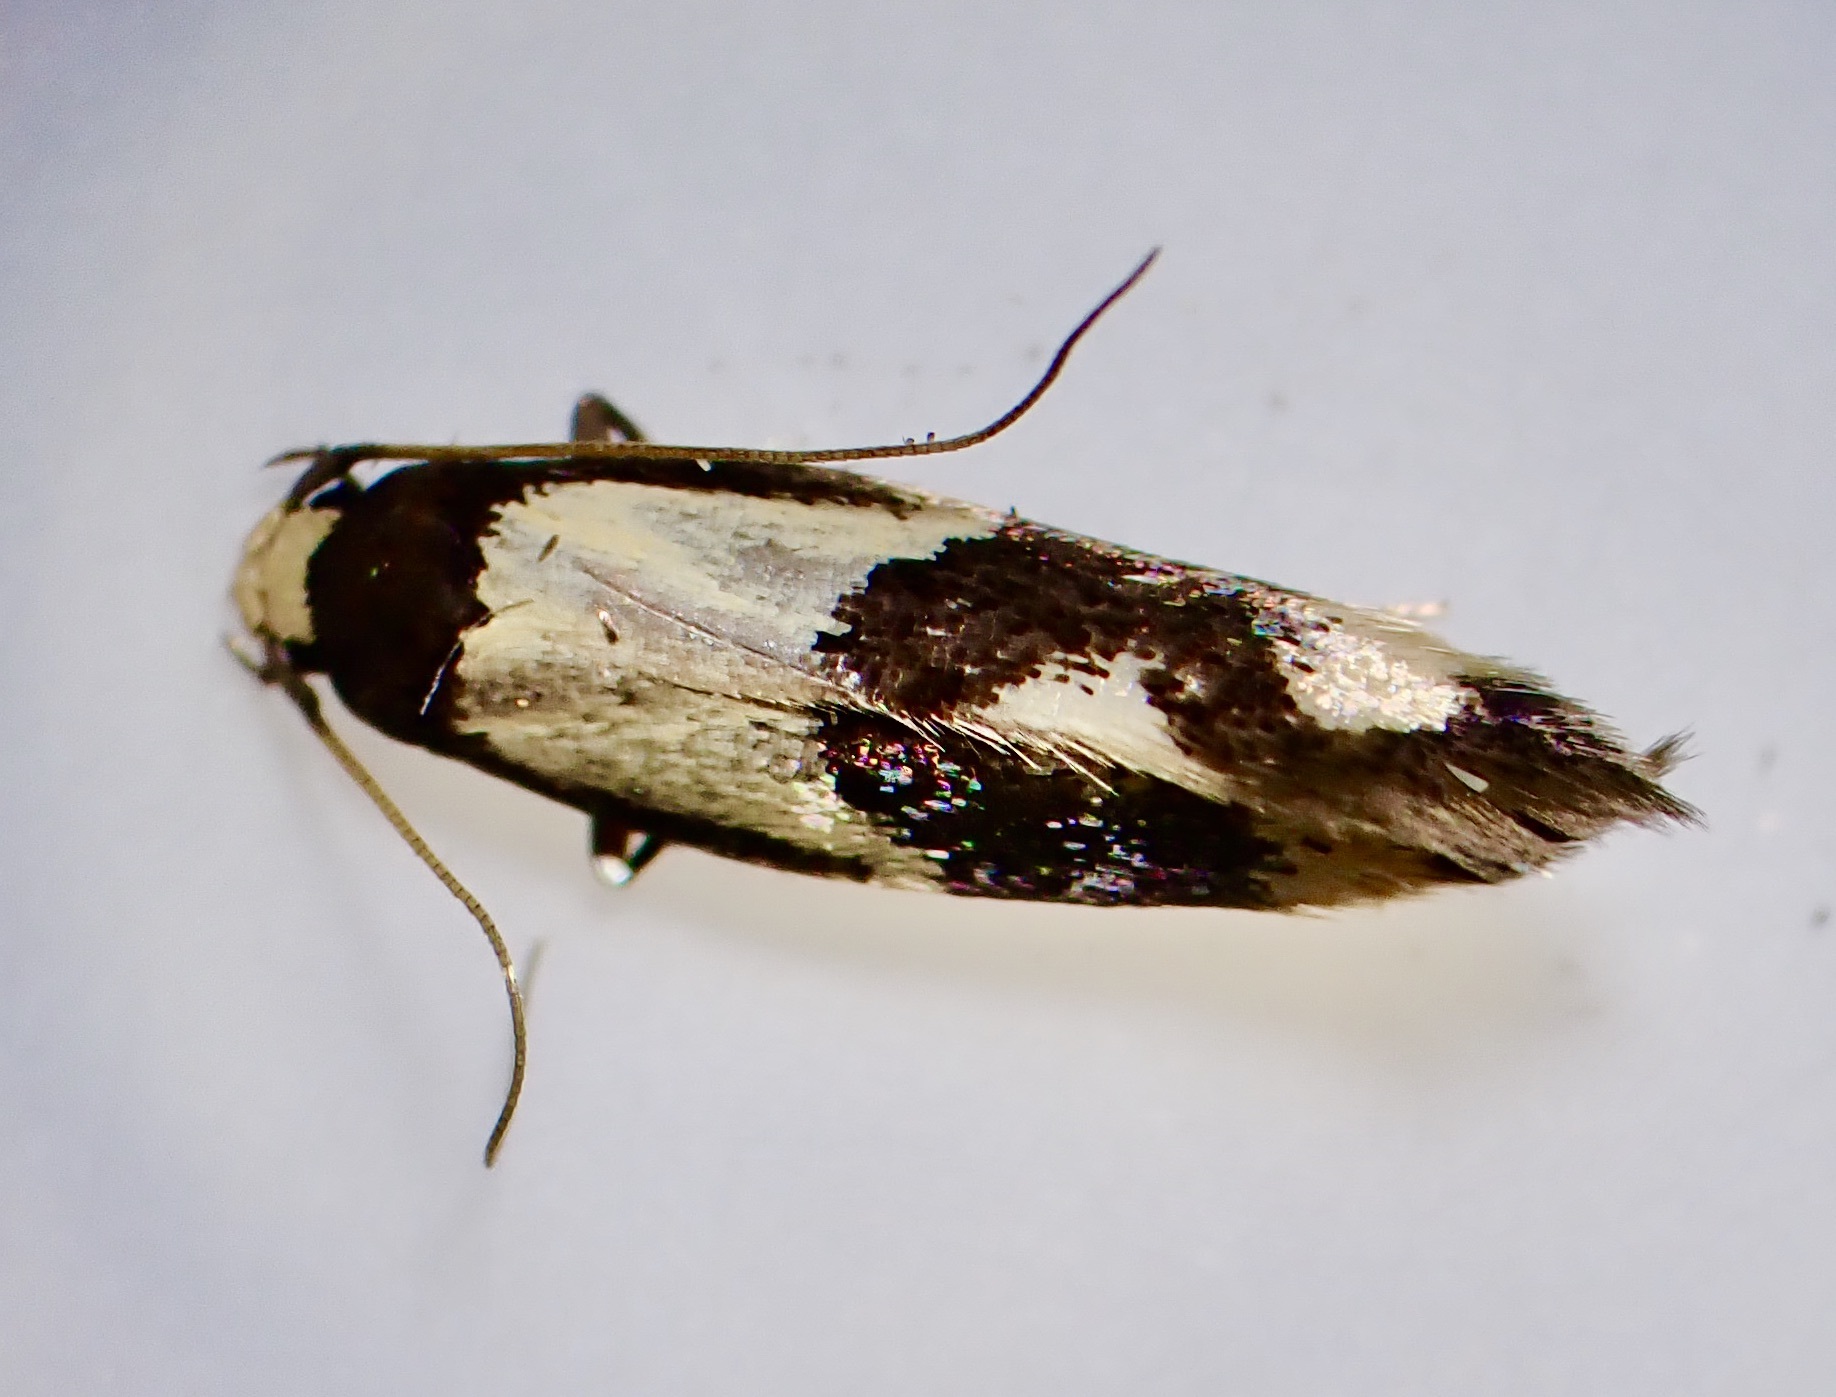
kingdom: Animalia
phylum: Arthropoda
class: Insecta
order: Lepidoptera
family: Tineidae
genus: Opogona
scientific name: Opogona comptella
